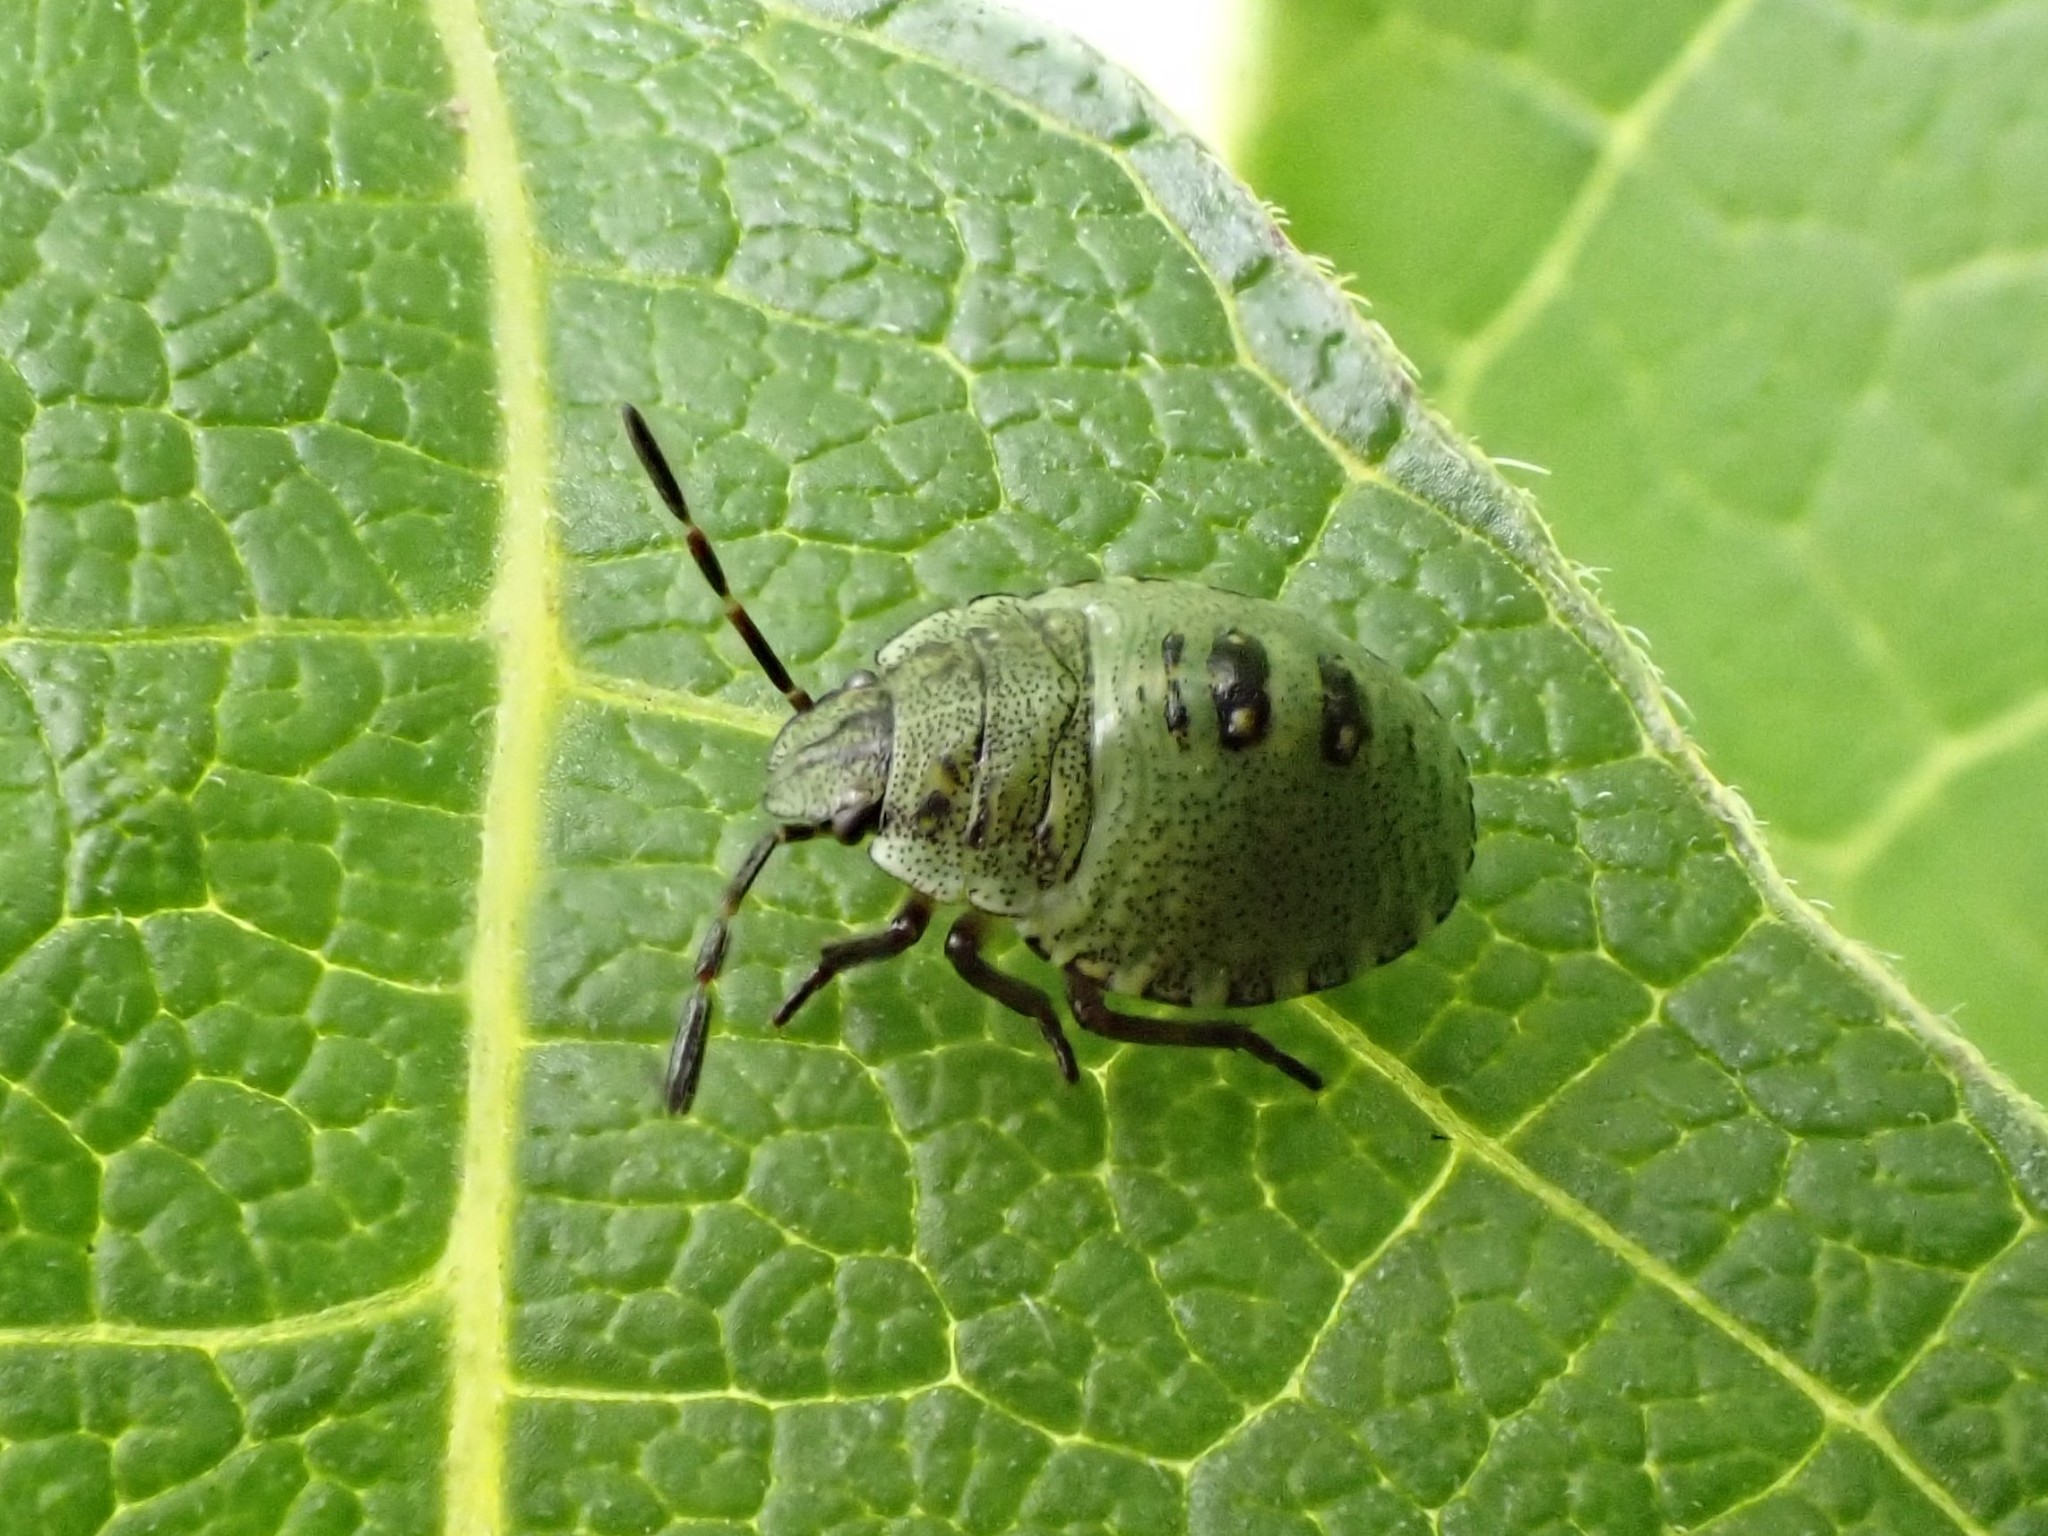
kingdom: Animalia
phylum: Arthropoda
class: Insecta
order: Hemiptera
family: Pentatomidae
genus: Palomena
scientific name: Palomena prasina
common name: Green shieldbug
